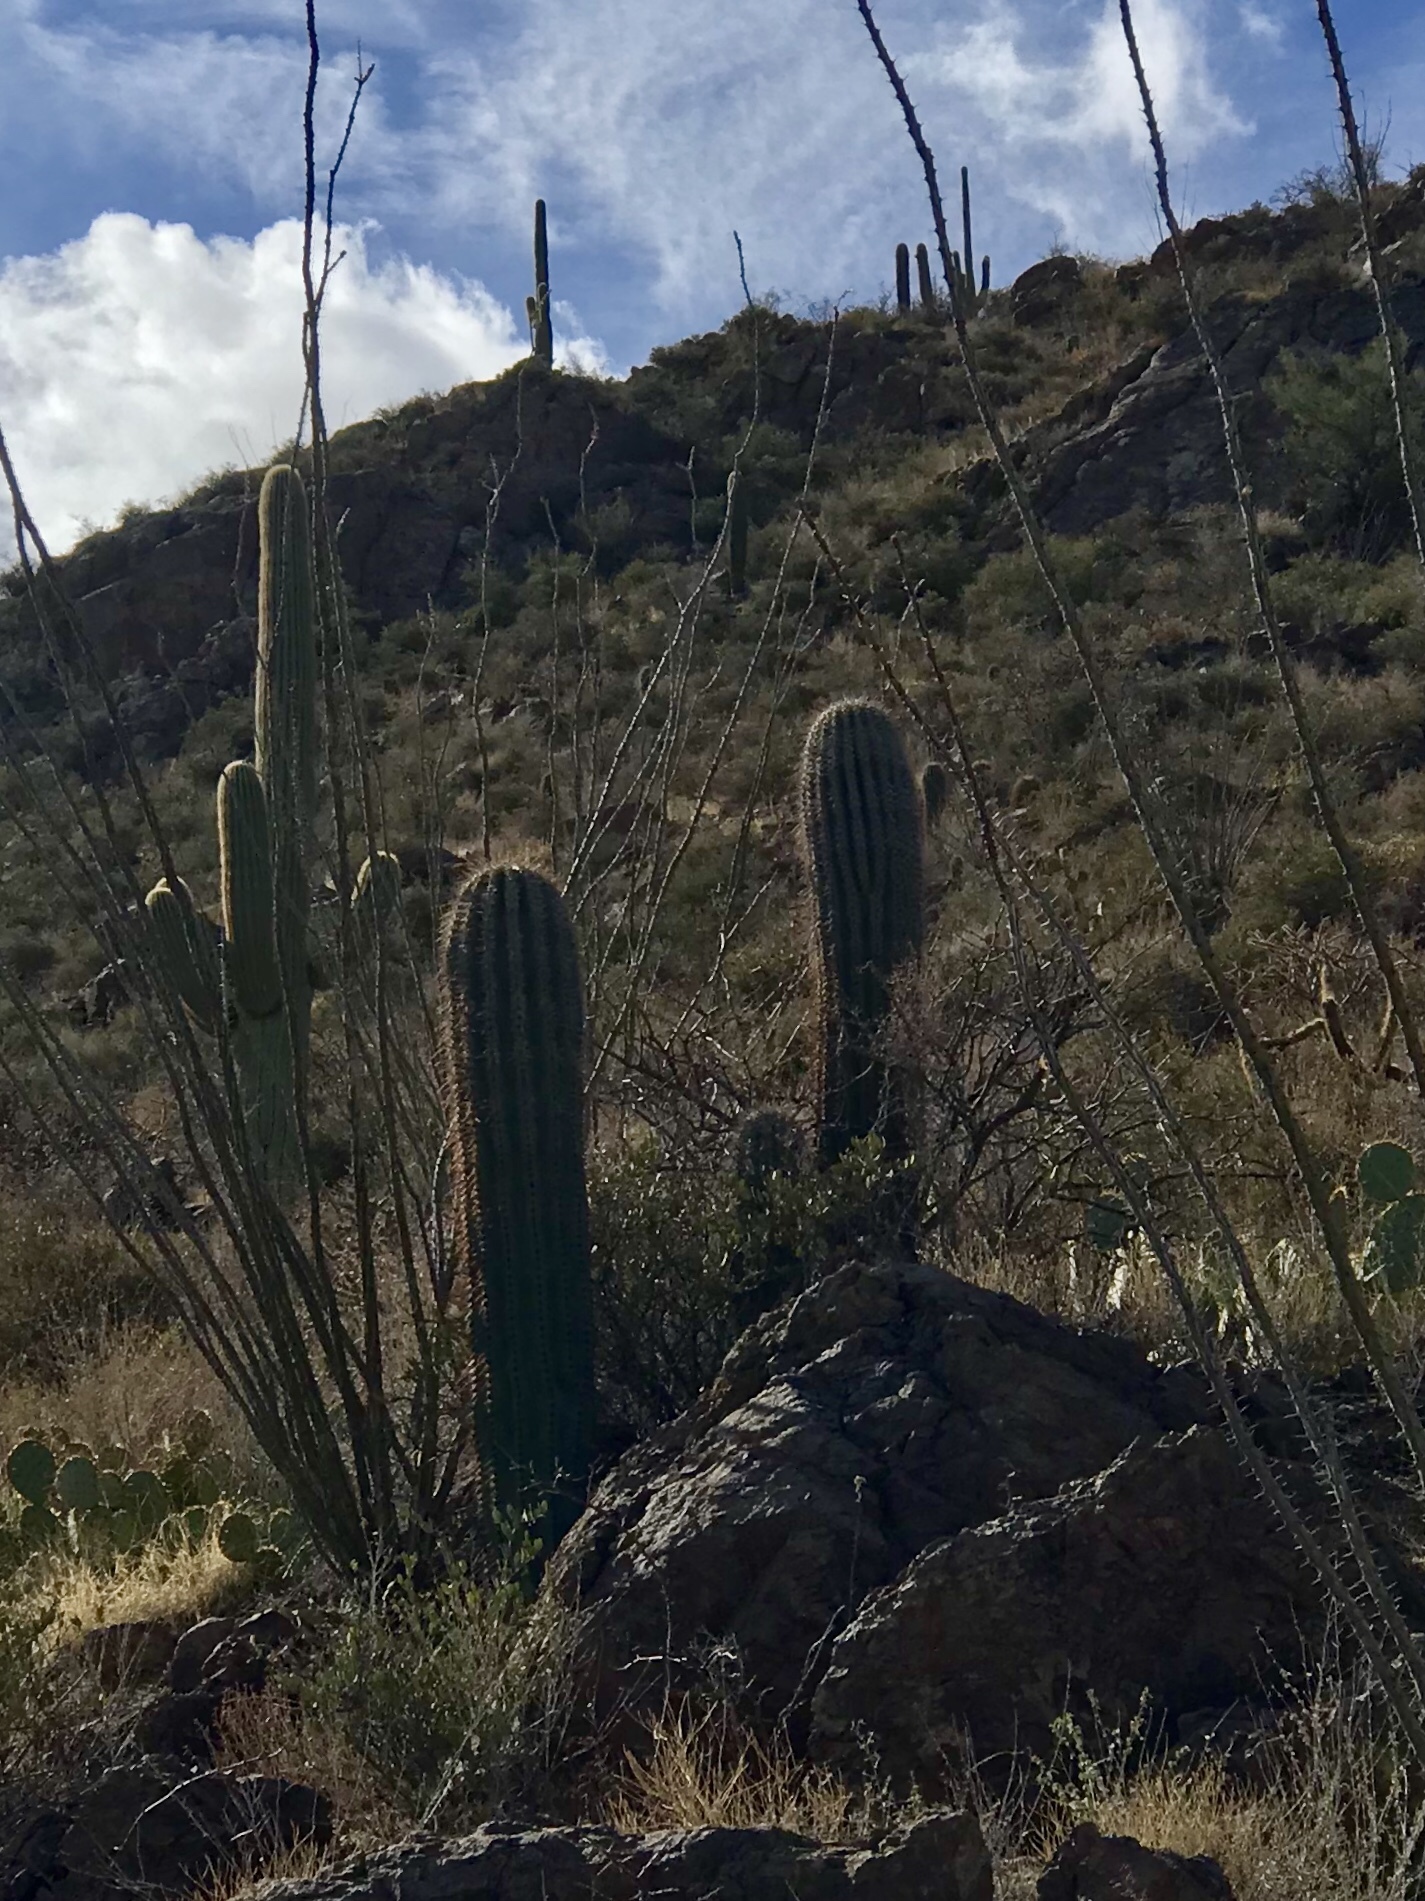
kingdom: Plantae
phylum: Tracheophyta
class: Magnoliopsida
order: Caryophyllales
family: Cactaceae
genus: Carnegiea
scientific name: Carnegiea gigantea
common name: Saguaro
